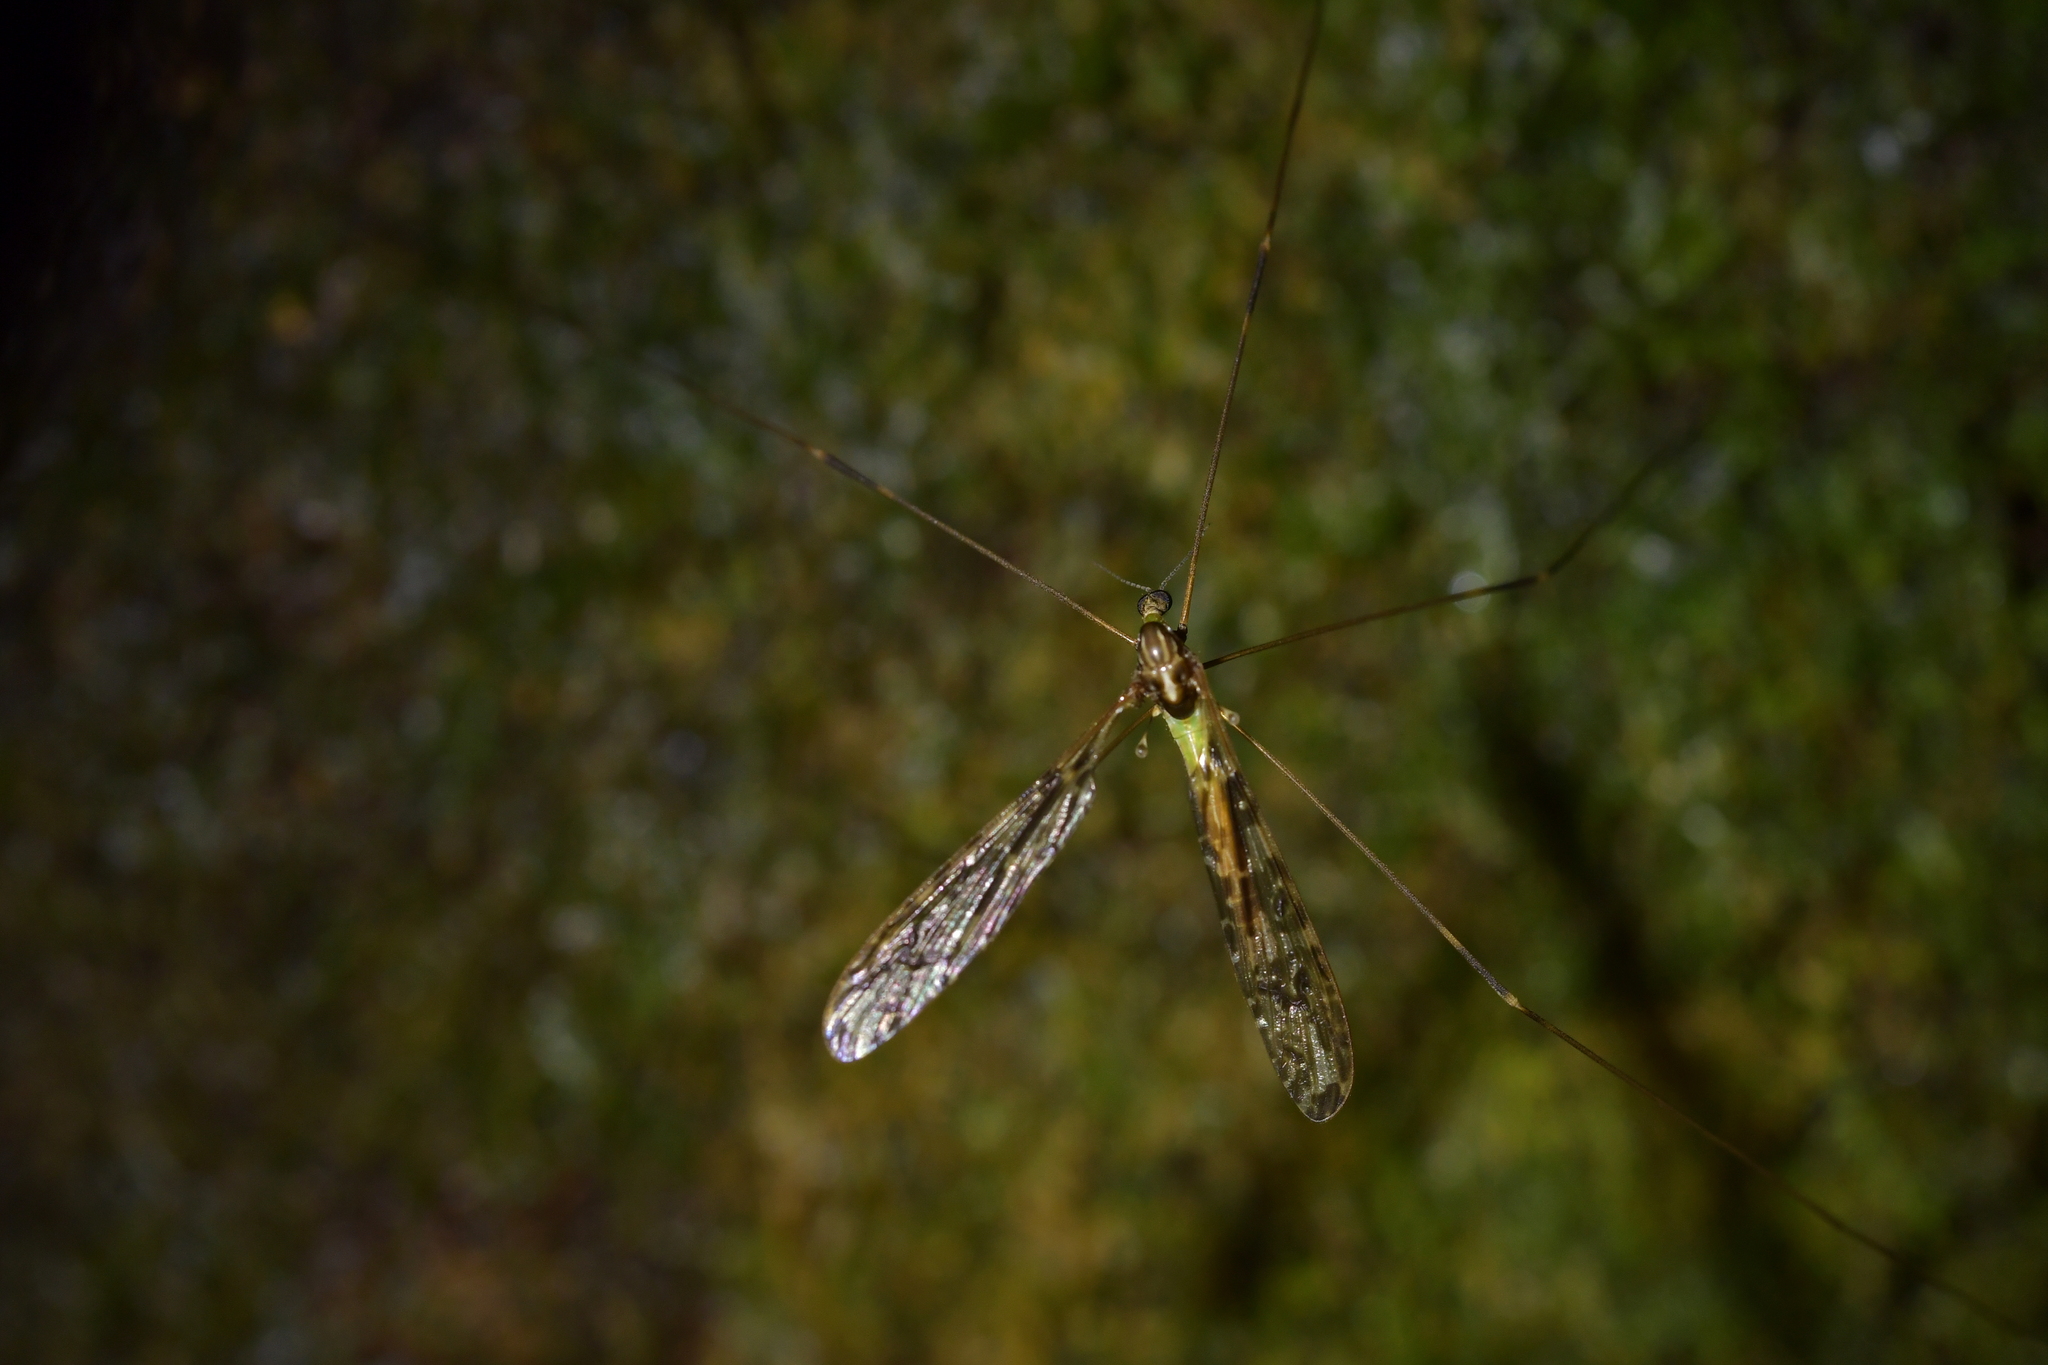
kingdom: Animalia
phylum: Arthropoda
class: Insecta
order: Diptera
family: Limoniidae
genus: Discobola
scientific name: Discobola dohrni
